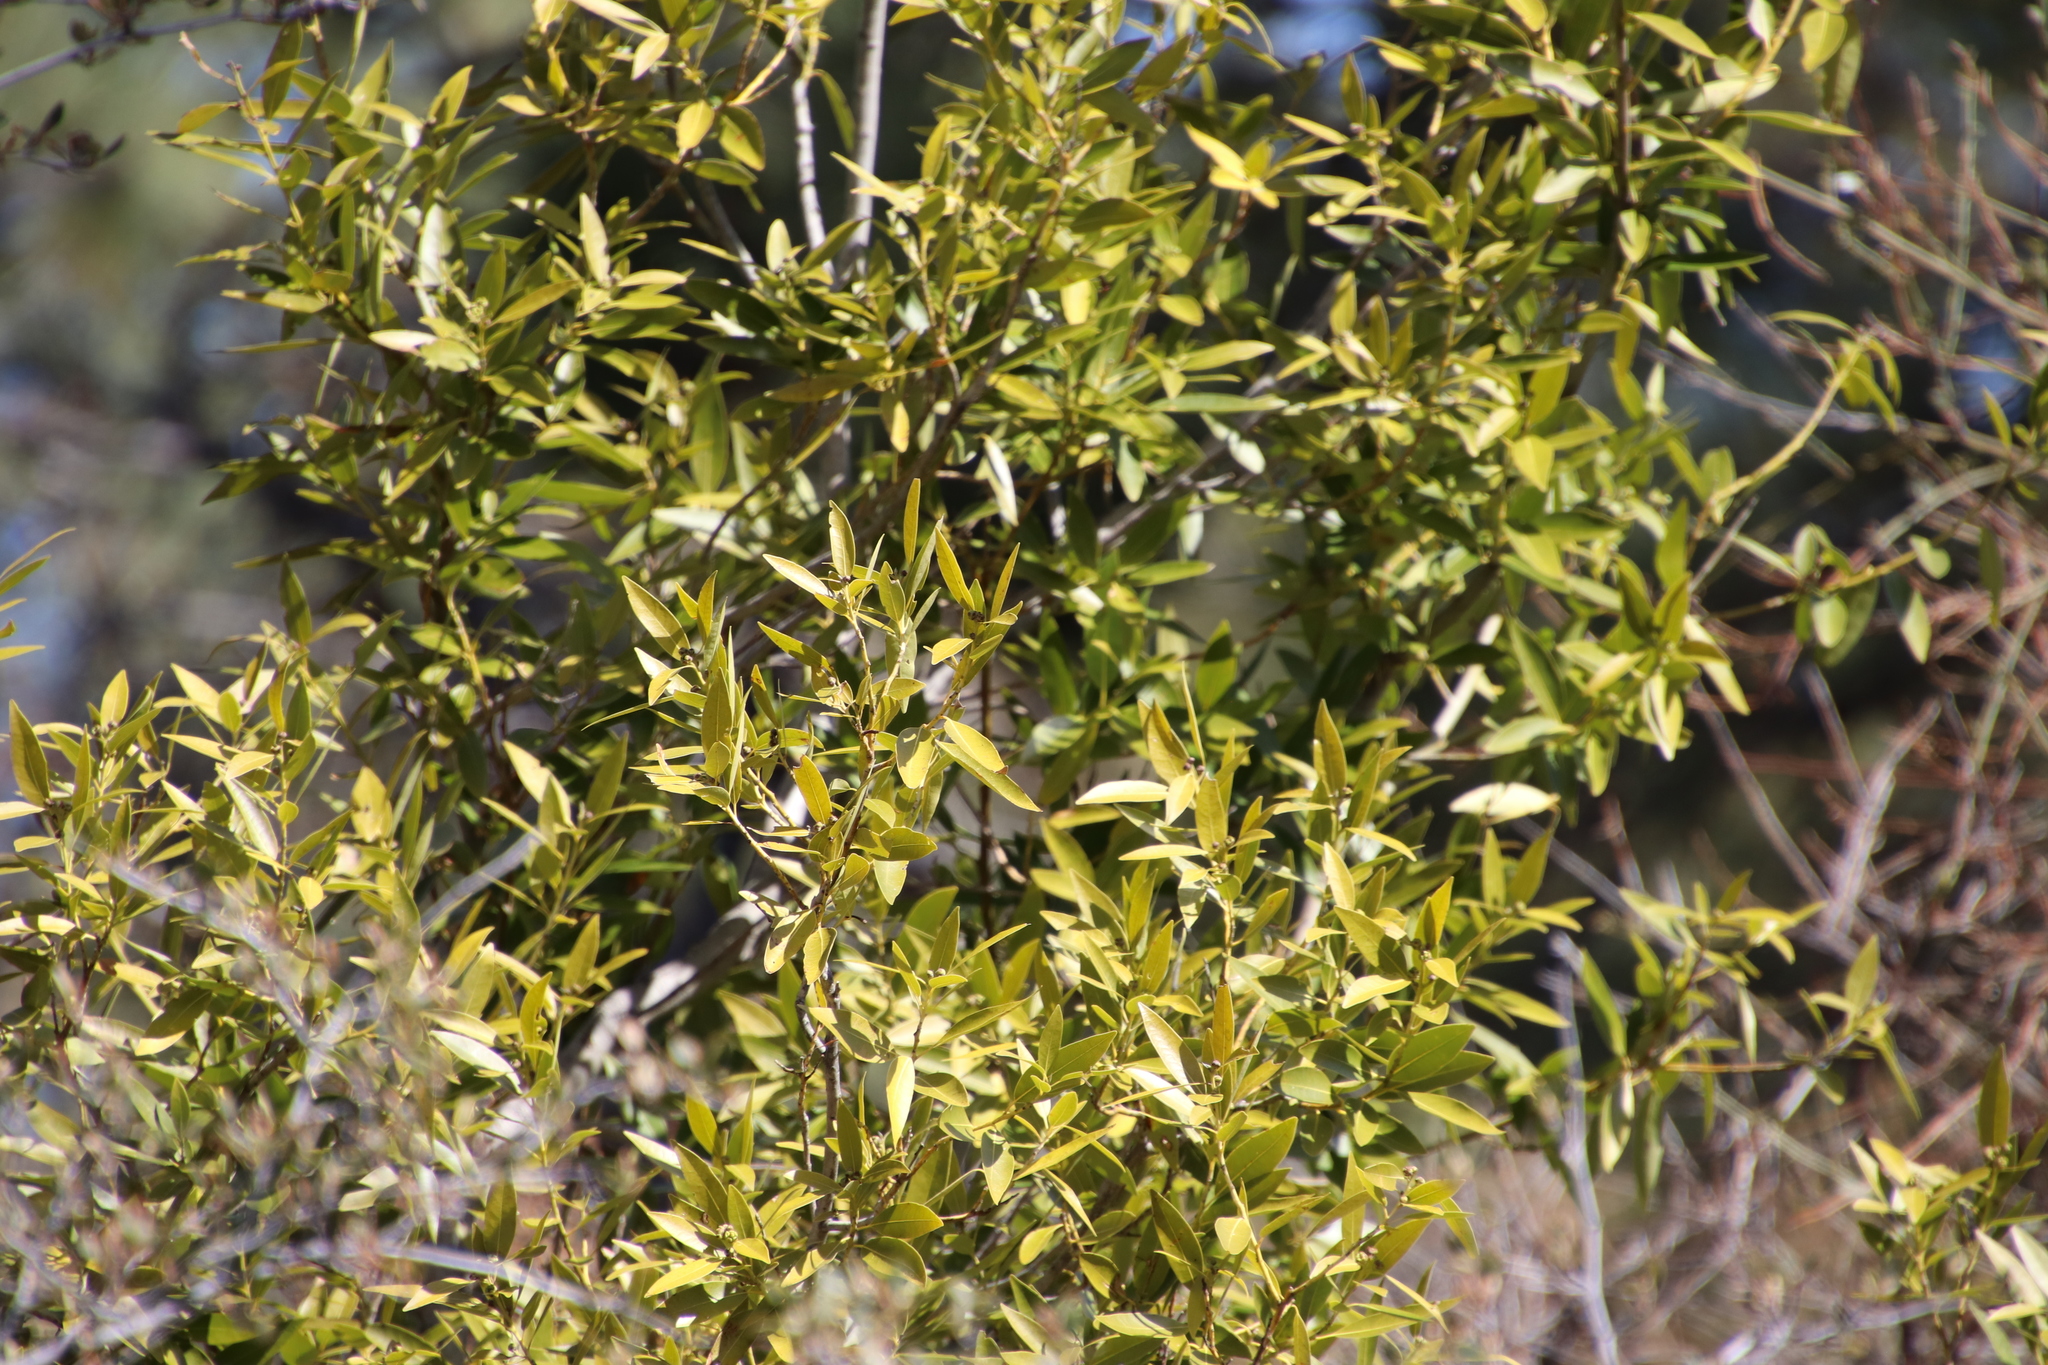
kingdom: Plantae
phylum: Tracheophyta
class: Magnoliopsida
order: Laurales
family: Lauraceae
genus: Umbellularia
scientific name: Umbellularia californica
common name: California bay
